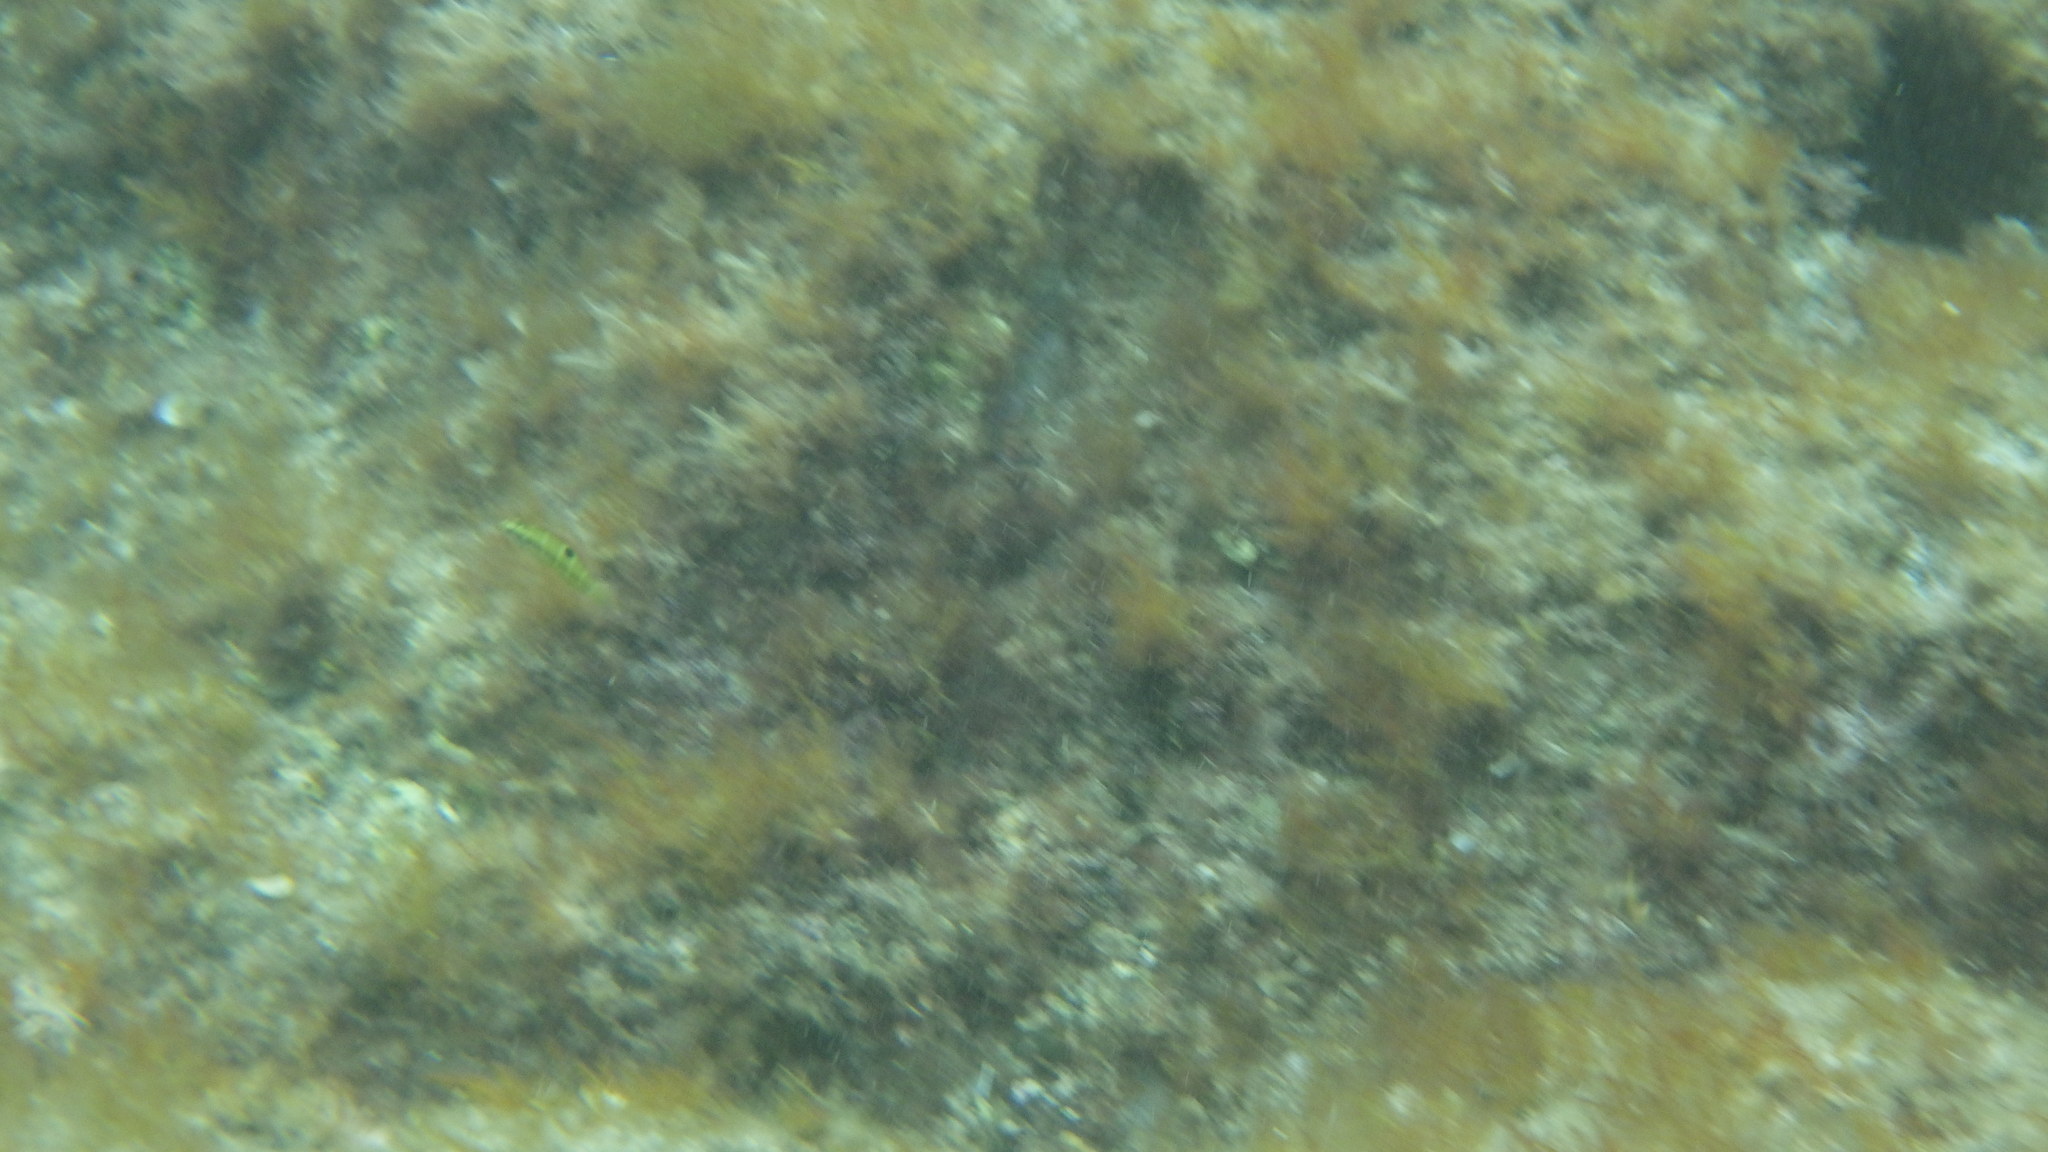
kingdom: Animalia
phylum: Chordata
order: Perciformes
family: Labridae
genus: Thalassoma
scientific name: Thalassoma pavo
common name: Ornate wrasse
